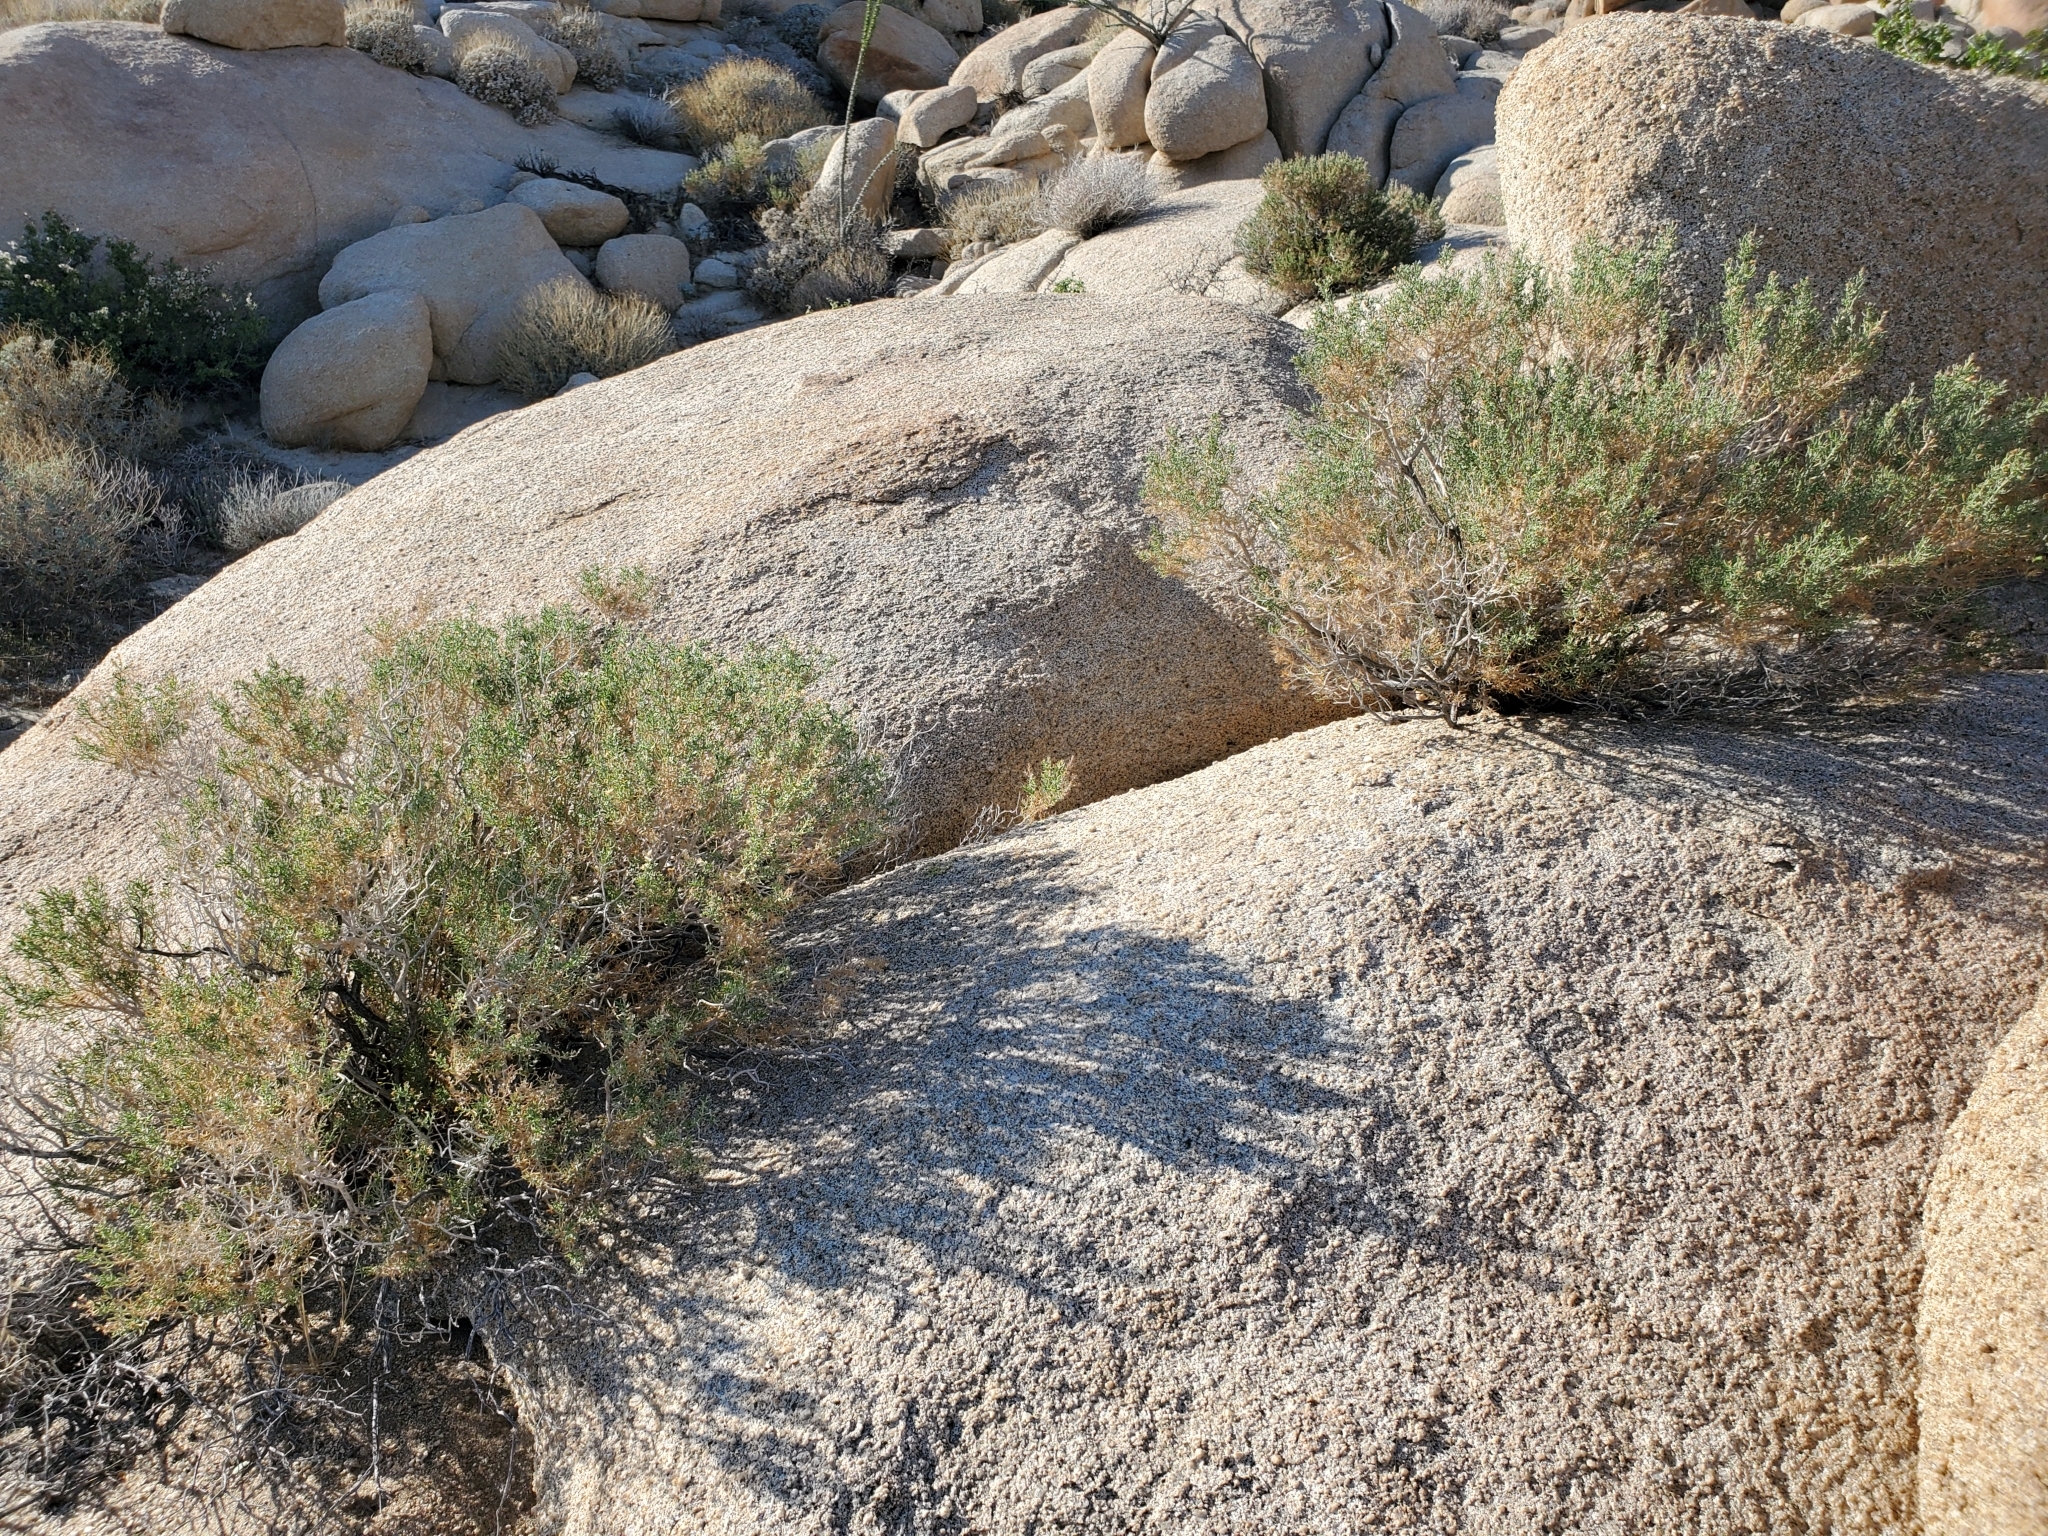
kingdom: Plantae
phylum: Tracheophyta
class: Magnoliopsida
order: Asterales
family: Asteraceae
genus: Ericameria
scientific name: Ericameria brachylepis
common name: Boundary goldenbush
